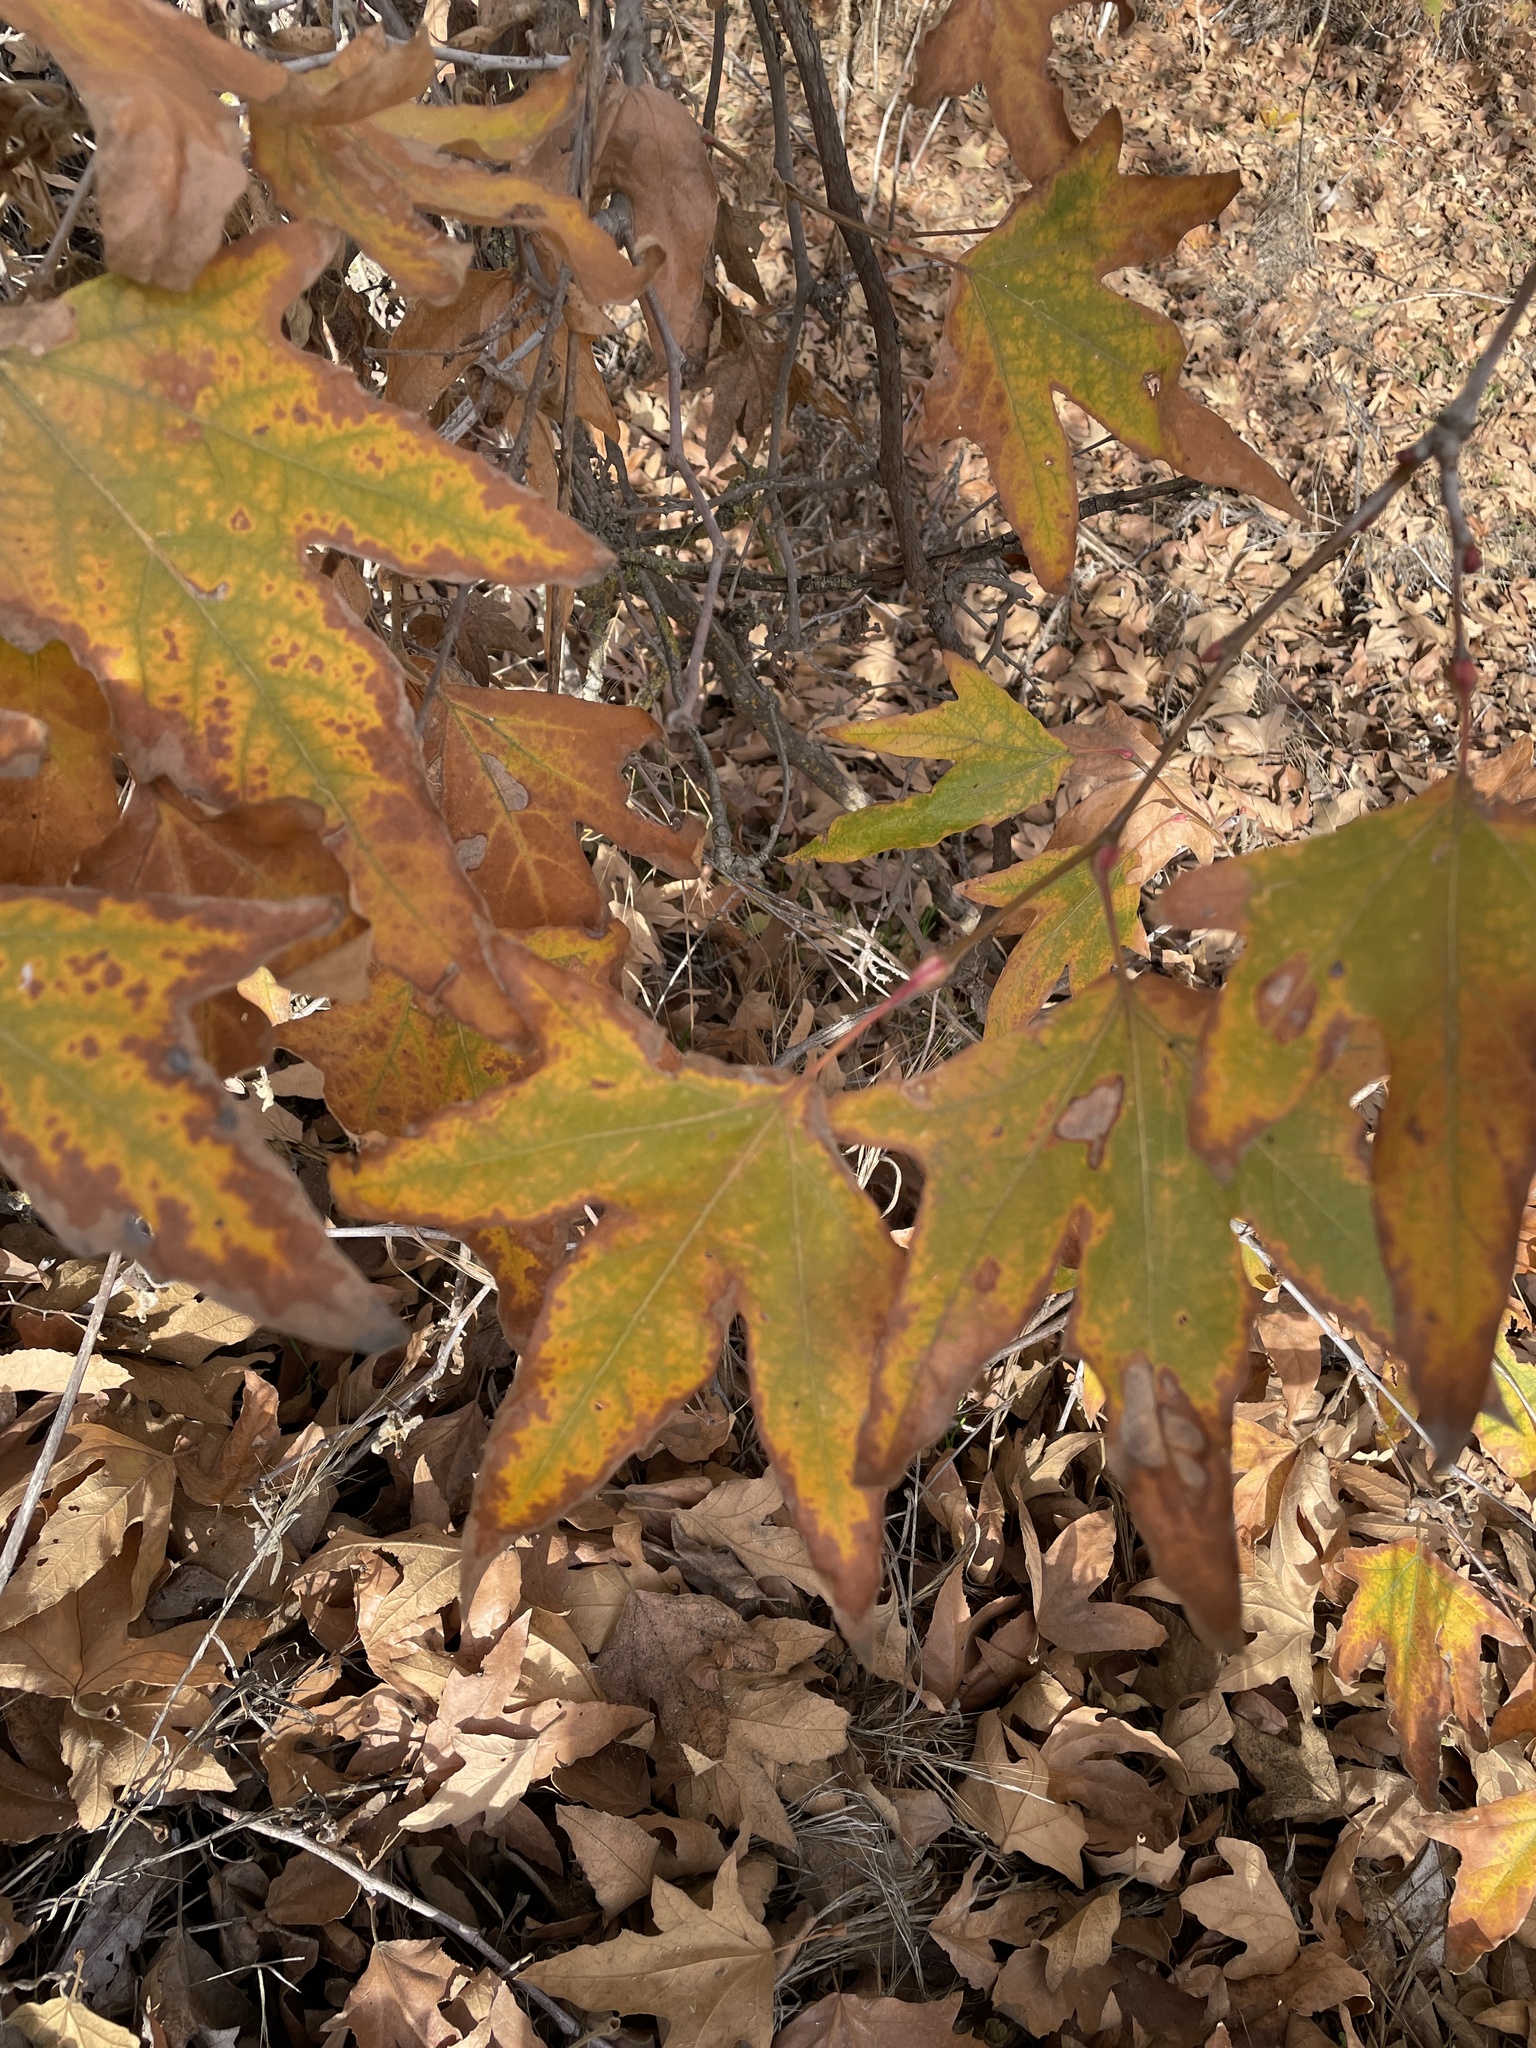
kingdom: Plantae
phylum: Tracheophyta
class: Magnoliopsida
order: Proteales
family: Platanaceae
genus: Platanus
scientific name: Platanus racemosa
